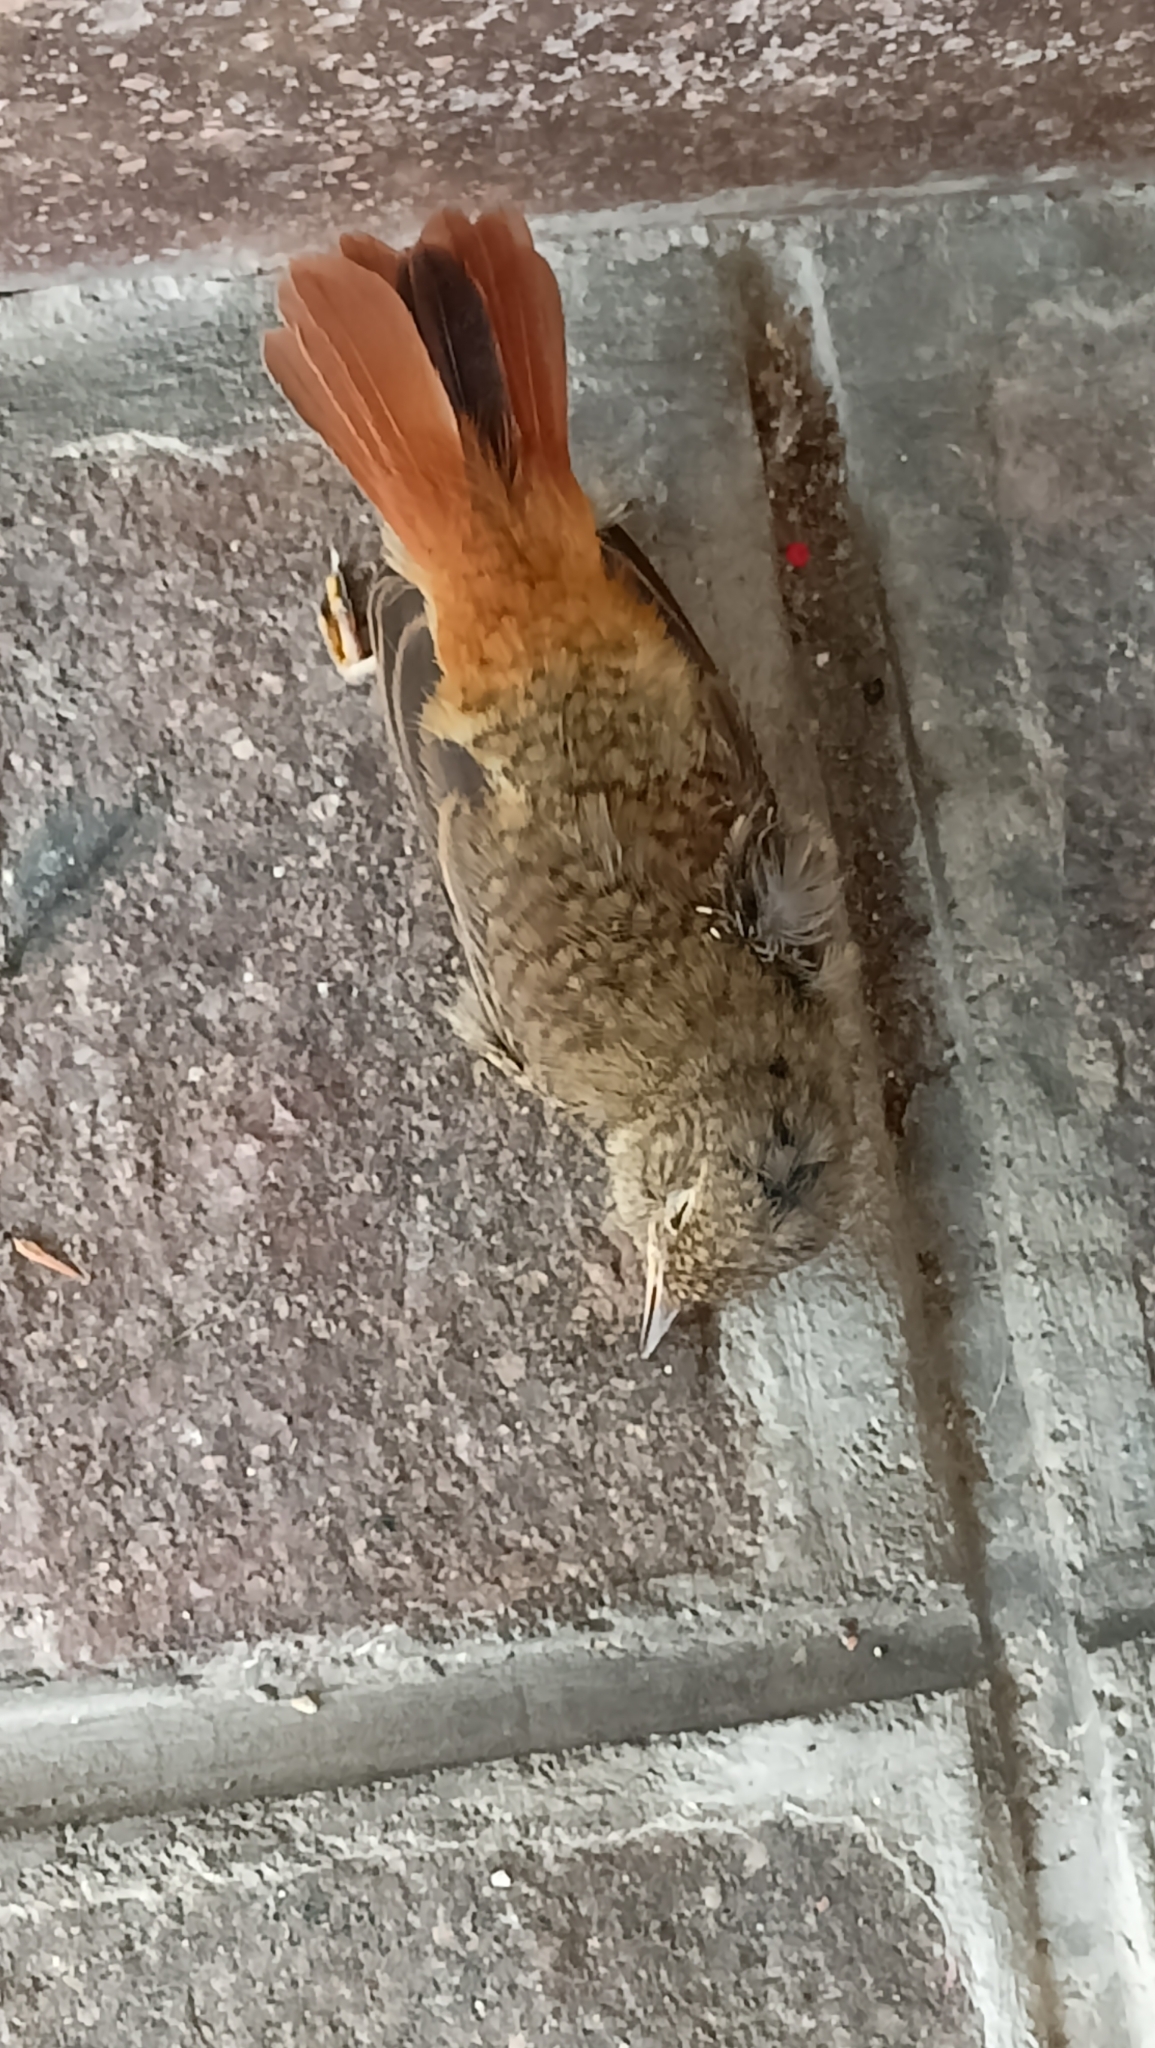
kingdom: Animalia
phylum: Chordata
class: Aves
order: Passeriformes
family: Muscicapidae
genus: Phoenicurus
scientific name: Phoenicurus phoenicurus
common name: Common redstart
